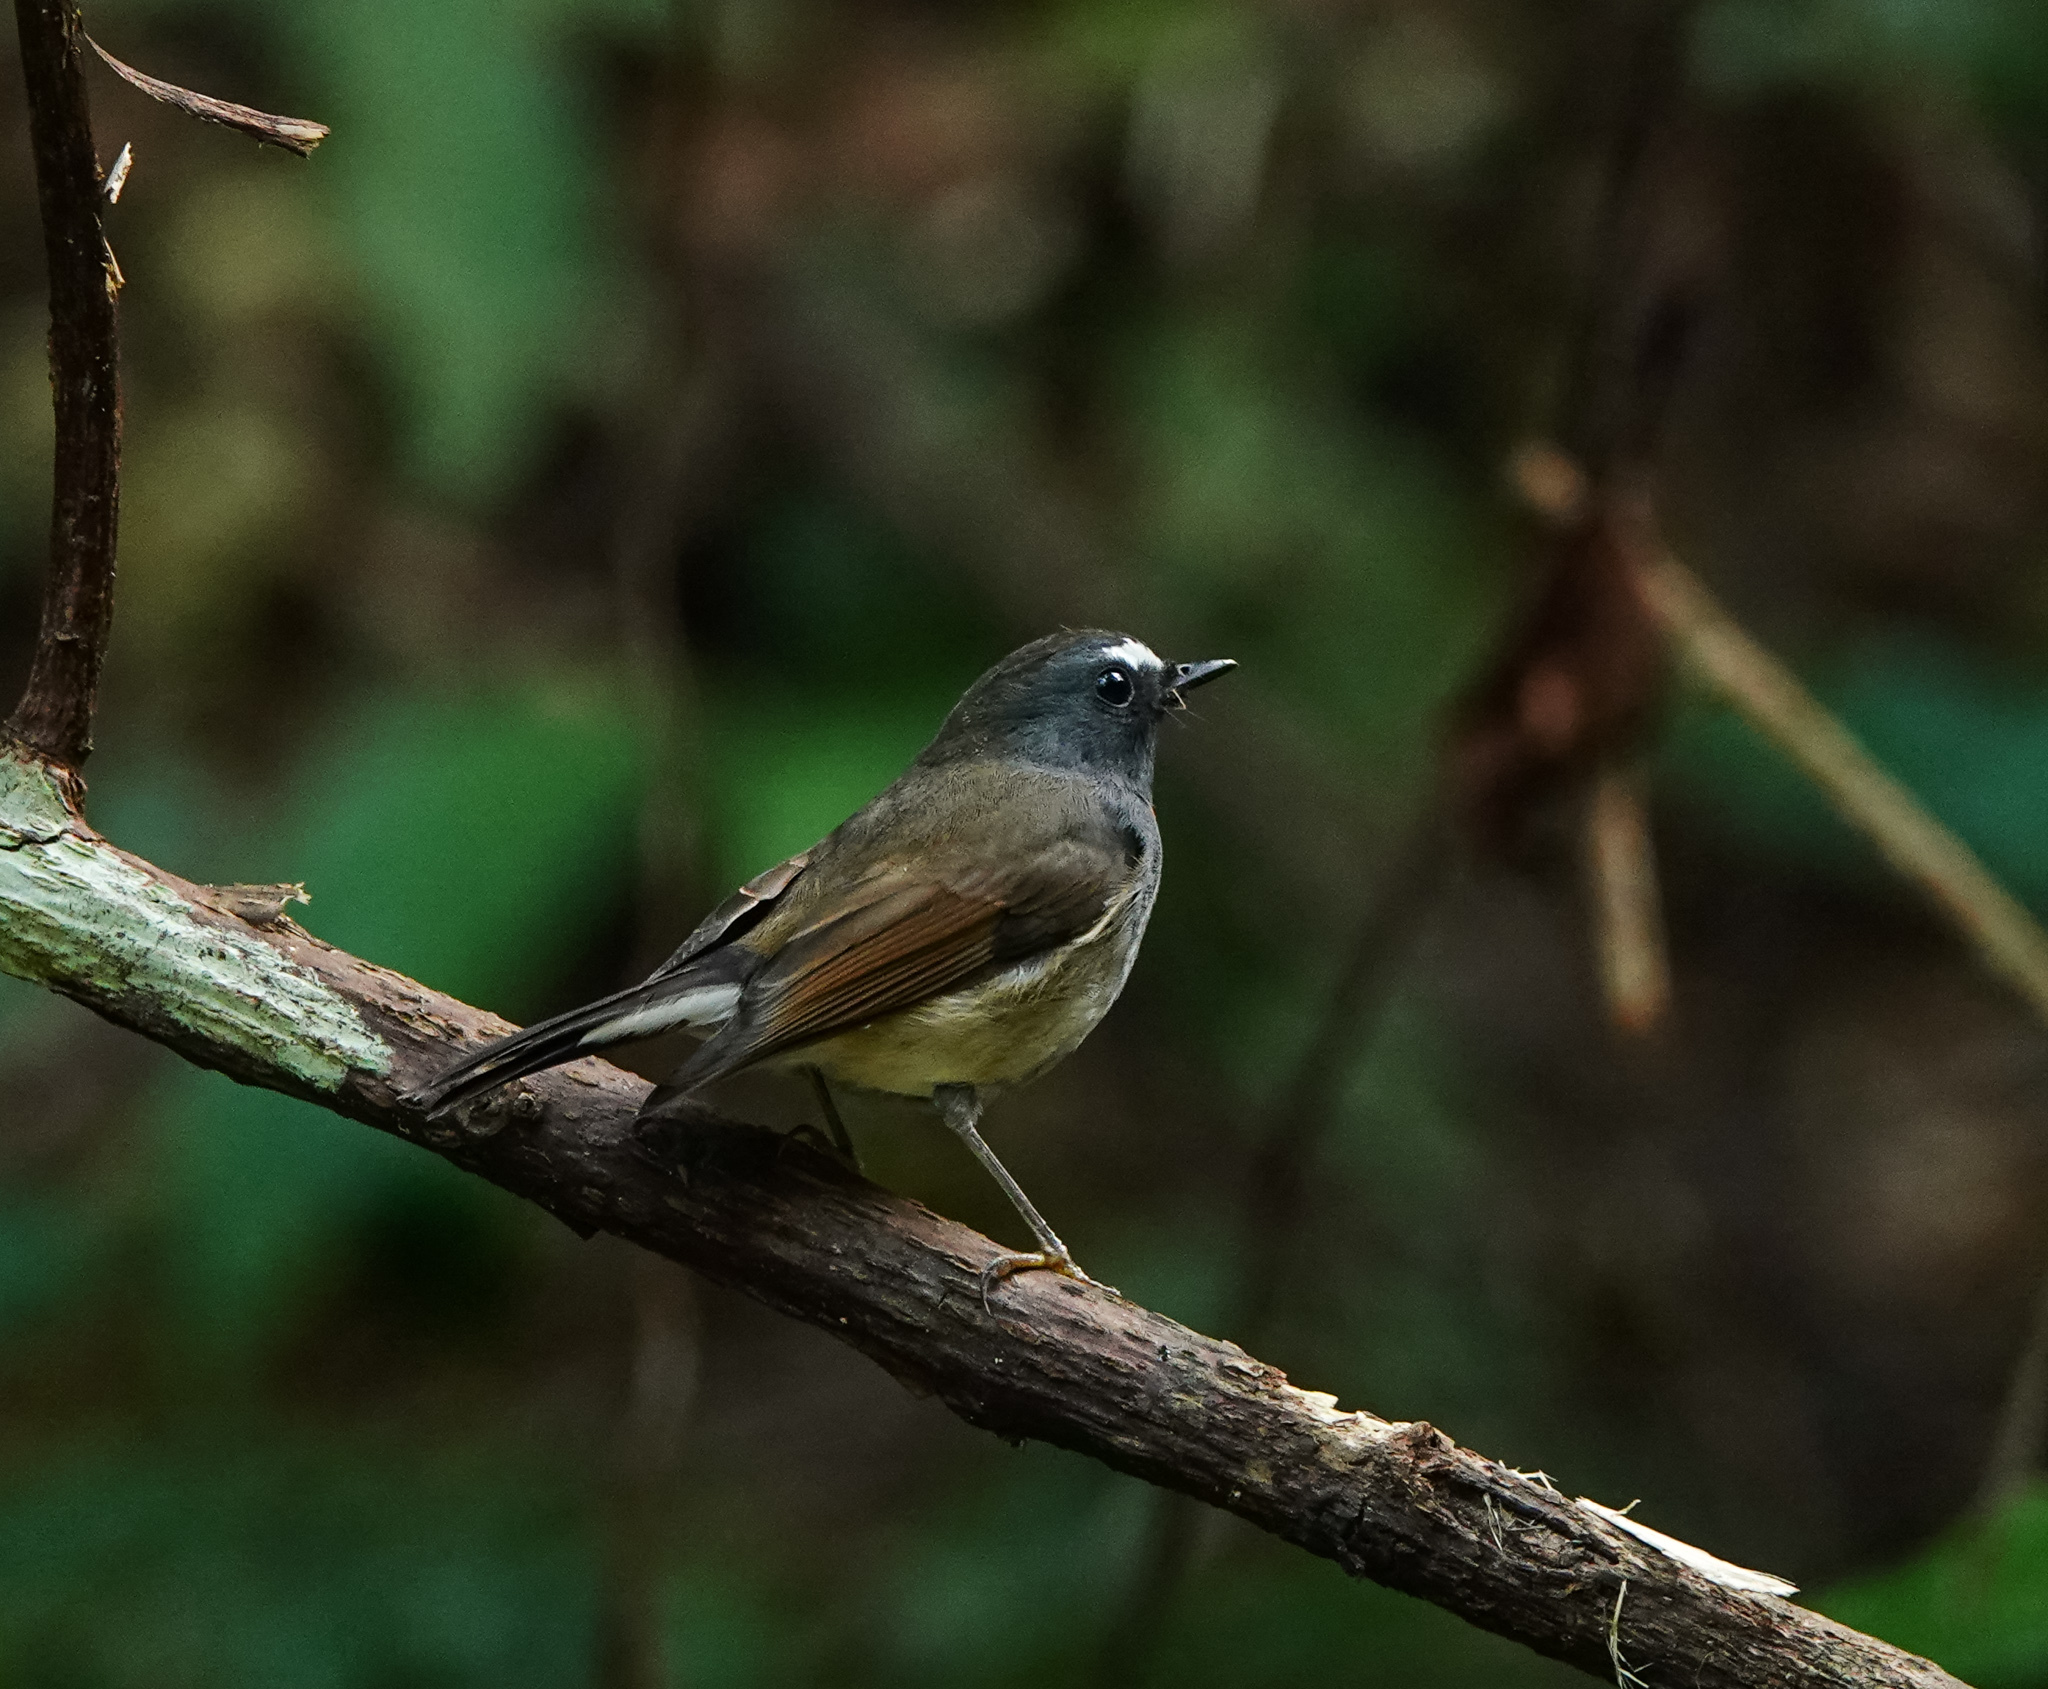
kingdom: Animalia
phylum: Chordata
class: Aves
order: Passeriformes
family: Muscicapidae
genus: Ficedula
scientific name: Ficedula strophiata
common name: Rufous-gorgeted flycatcher
